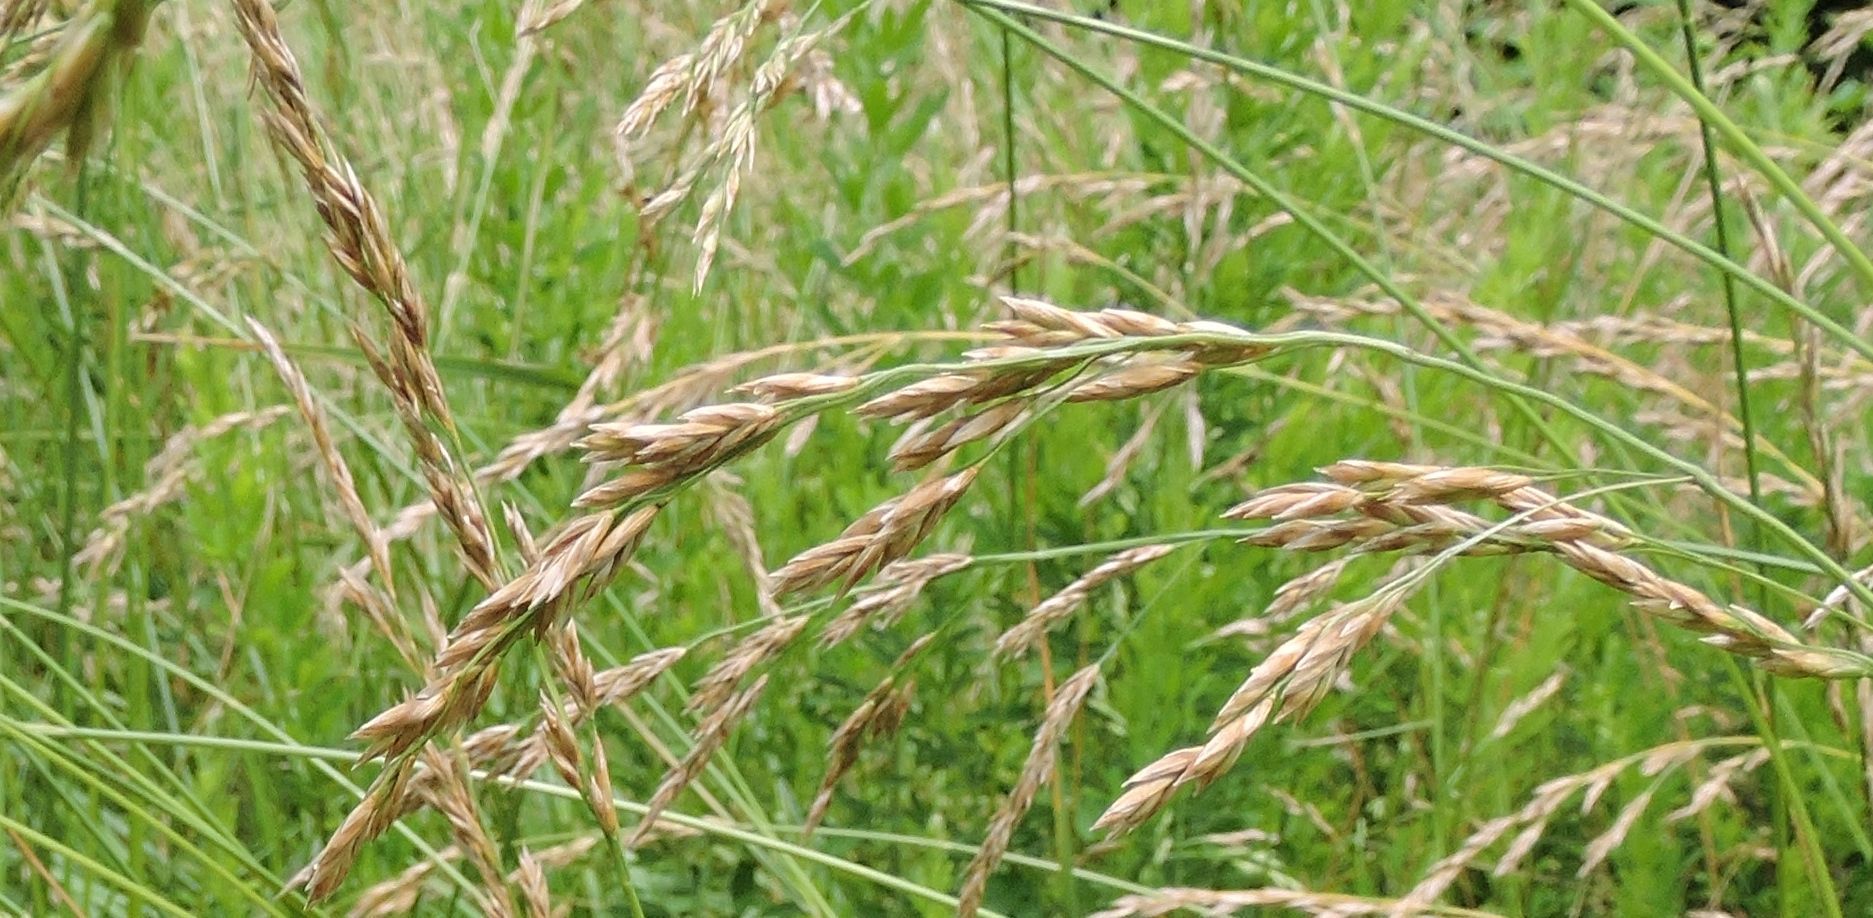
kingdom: Plantae
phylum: Tracheophyta
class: Liliopsida
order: Poales
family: Poaceae
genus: Lolium
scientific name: Lolium arundinaceum
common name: Reed fescue
